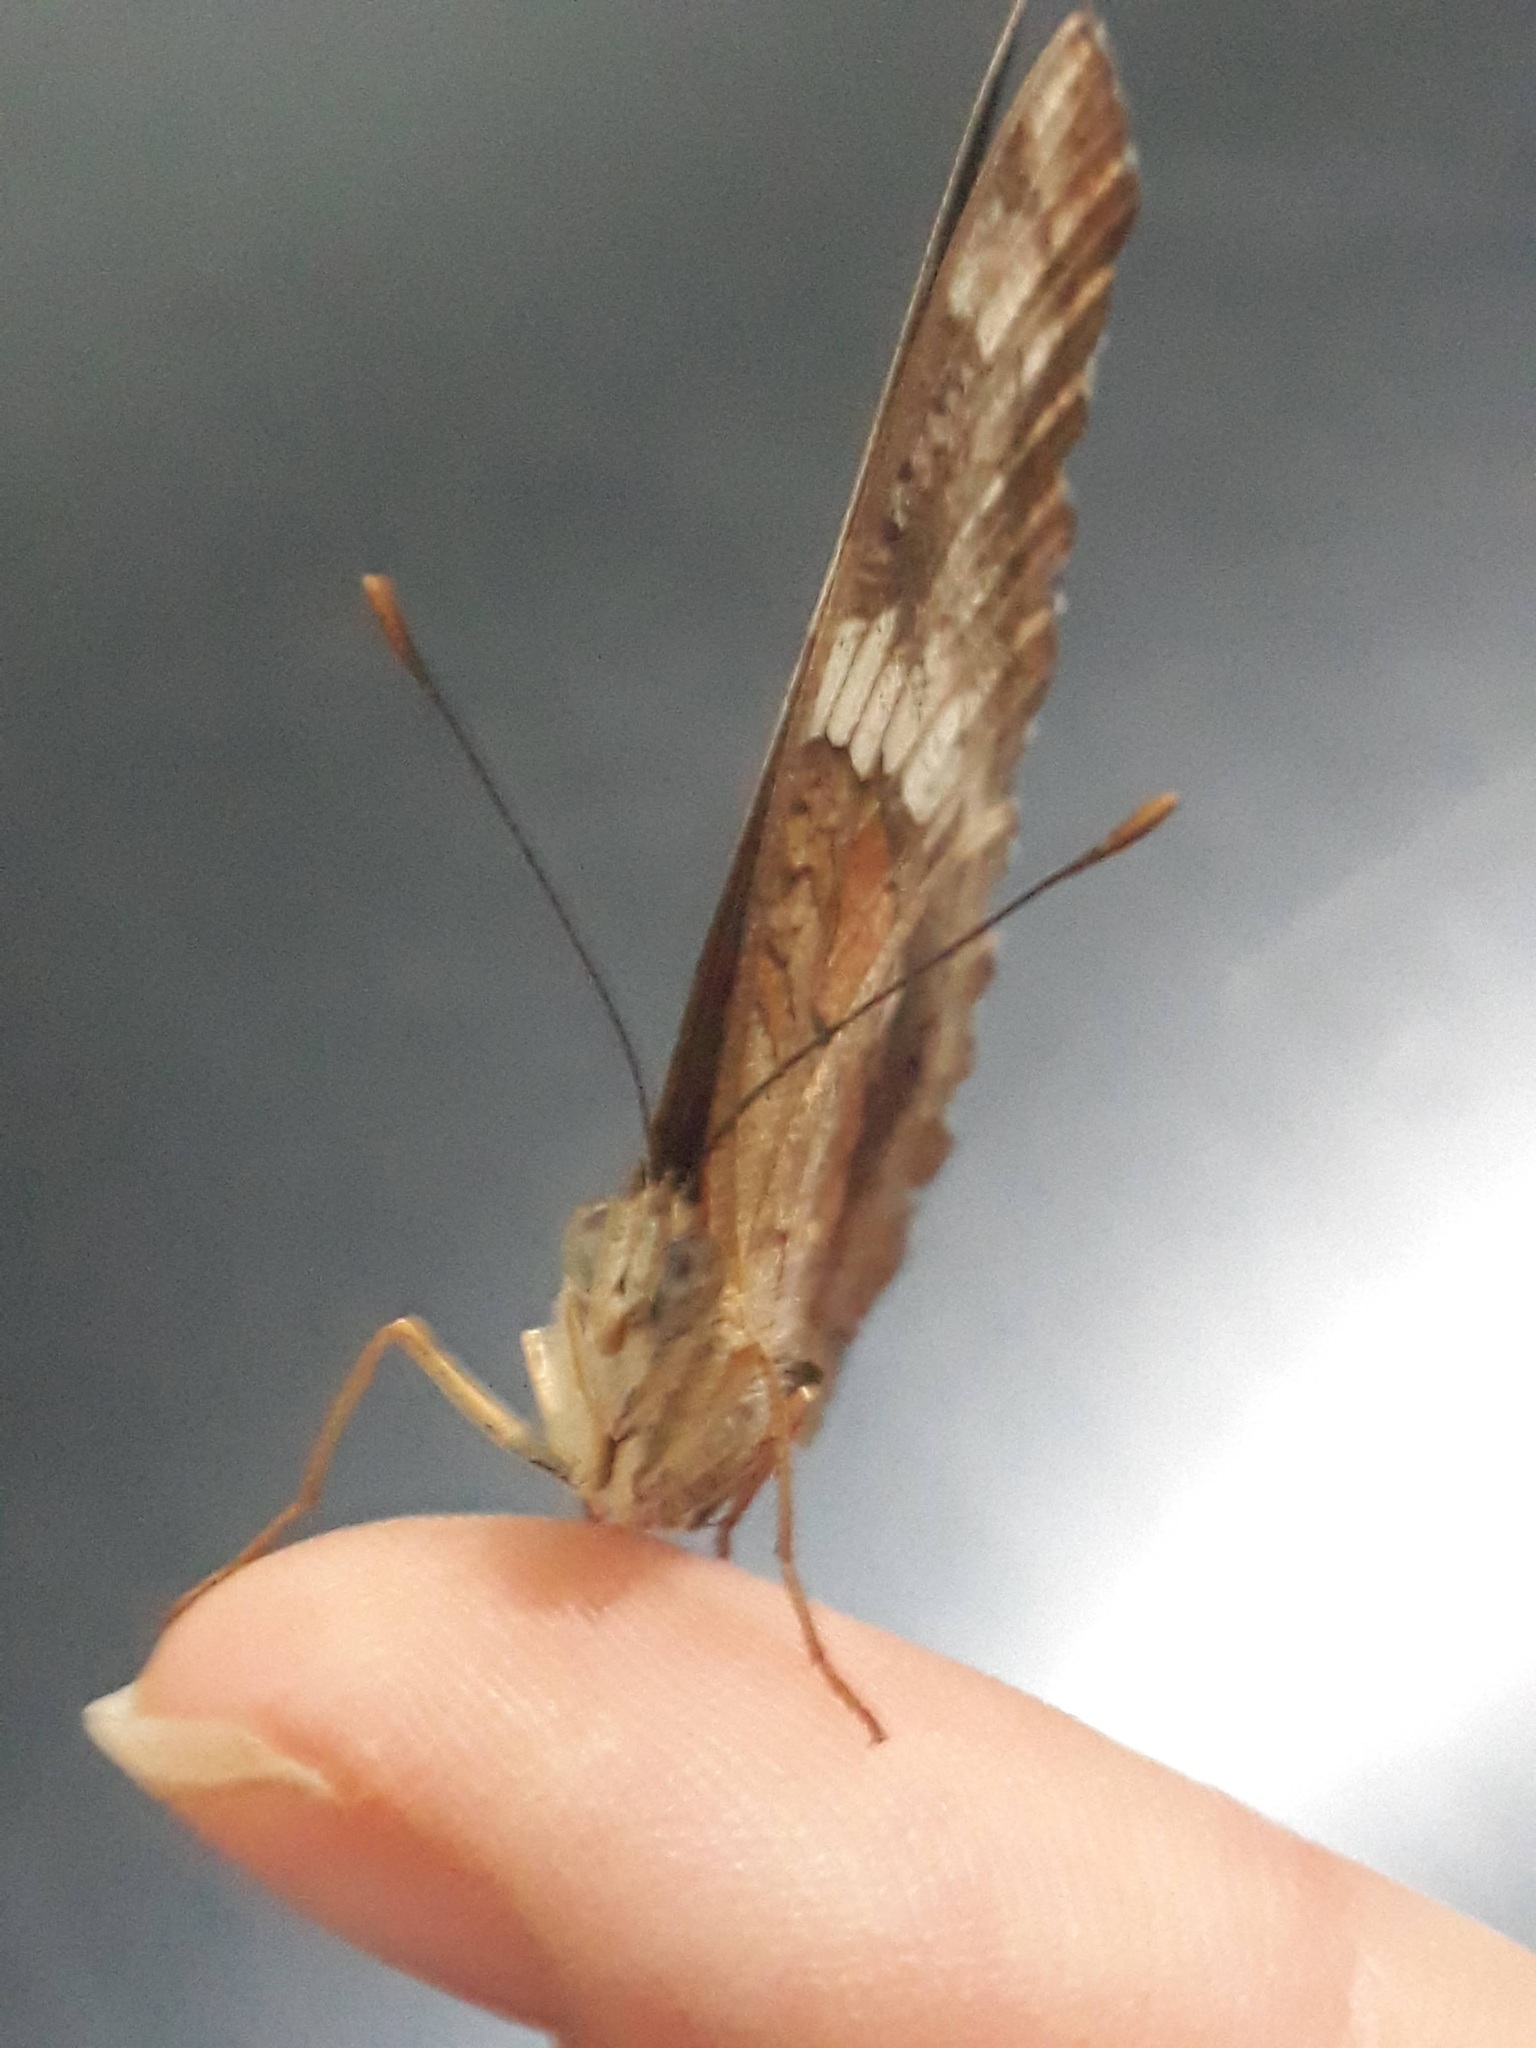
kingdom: Animalia
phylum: Arthropoda
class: Insecta
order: Lepidoptera
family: Nymphalidae
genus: Anartia
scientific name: Anartia amathea
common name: Red peacock
